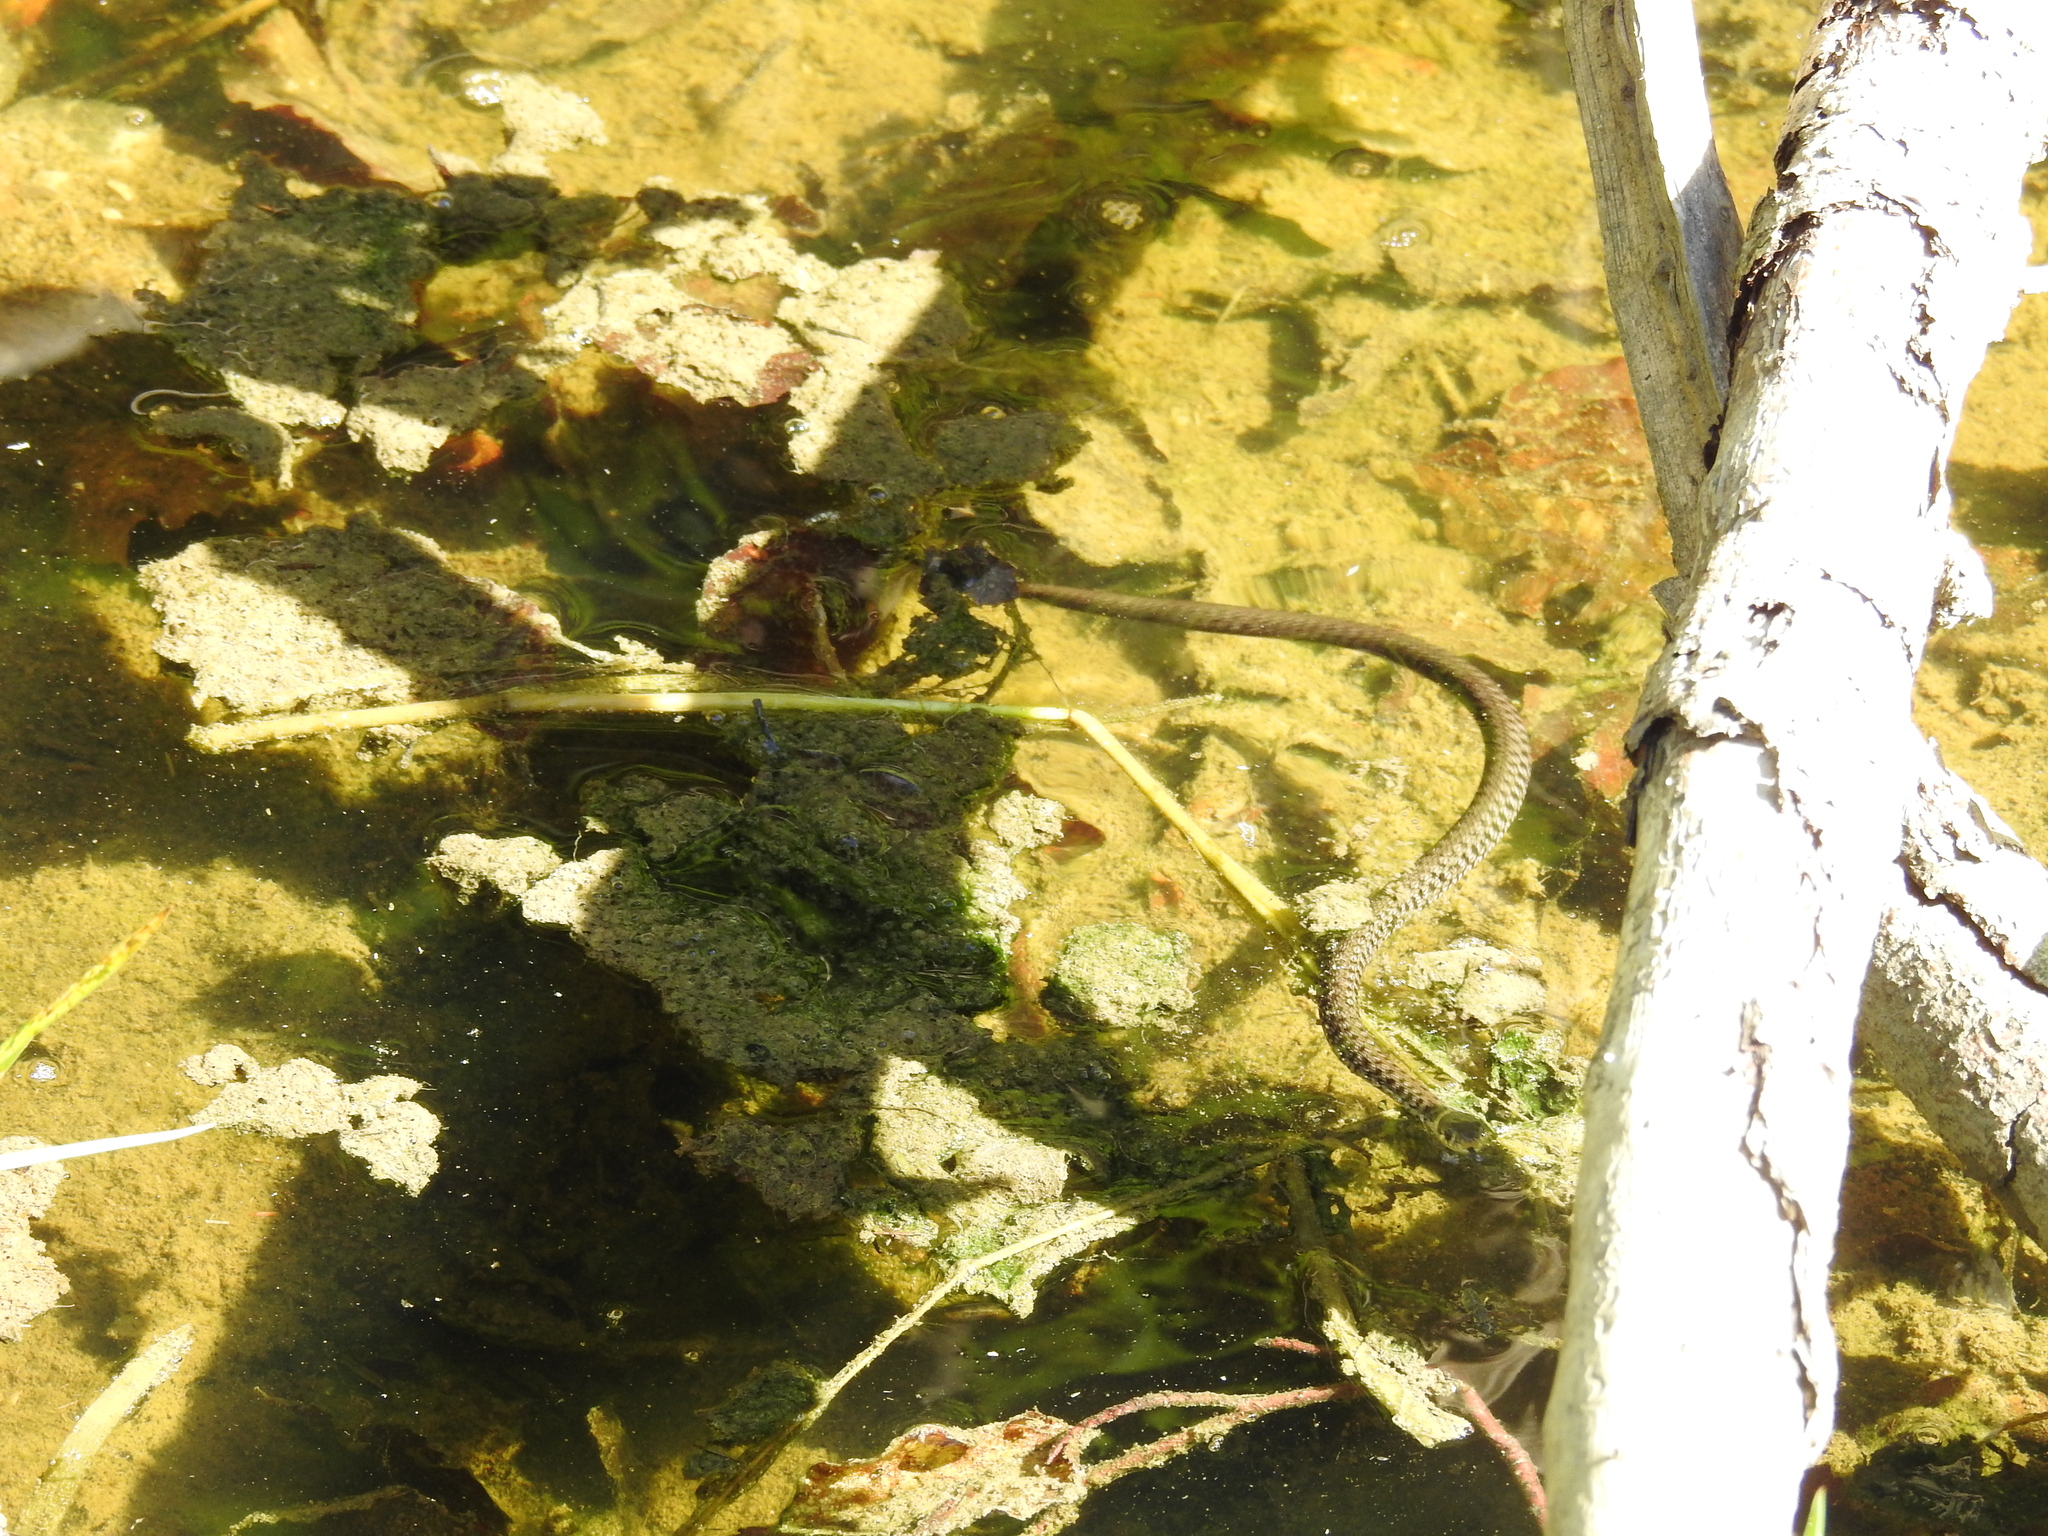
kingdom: Animalia
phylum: Chordata
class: Squamata
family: Colubridae
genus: Natrix
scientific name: Natrix
